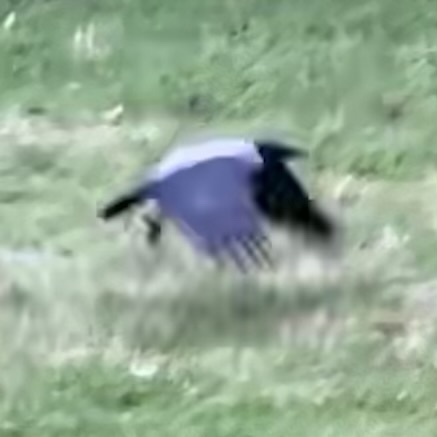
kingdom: Animalia
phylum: Chordata
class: Aves
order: Passeriformes
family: Corvidae
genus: Corvus
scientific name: Corvus cornix
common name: Hooded crow
